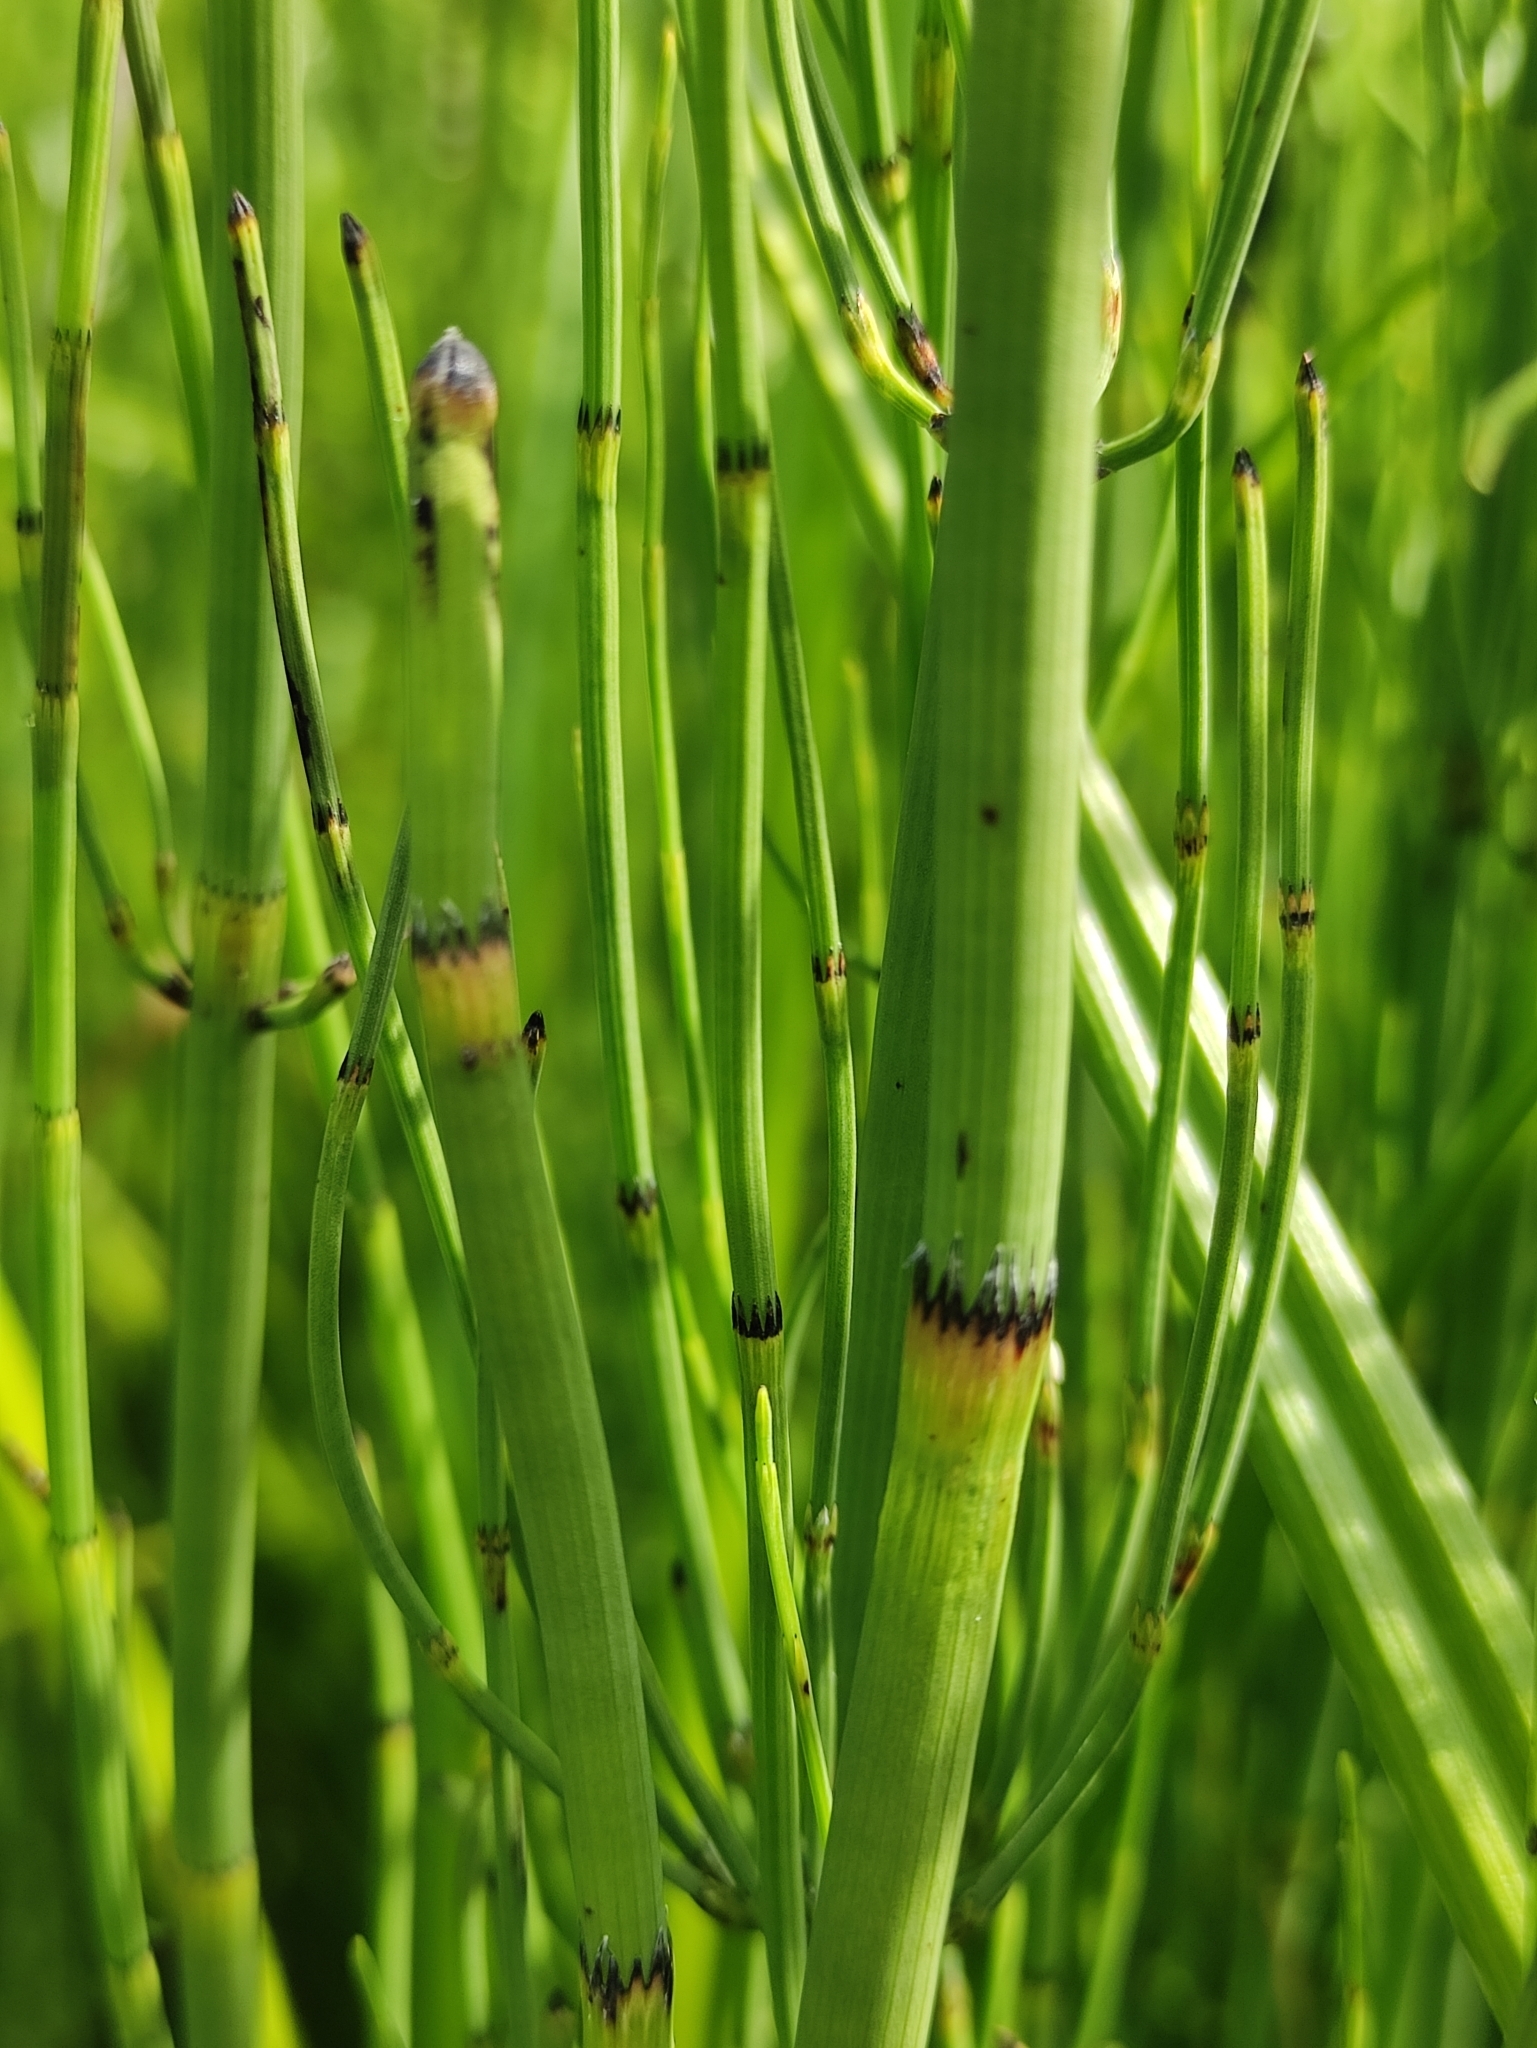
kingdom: Plantae
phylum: Tracheophyta
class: Polypodiopsida
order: Equisetales
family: Equisetaceae
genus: Equisetum
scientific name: Equisetum fluviatile
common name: Water horsetail
